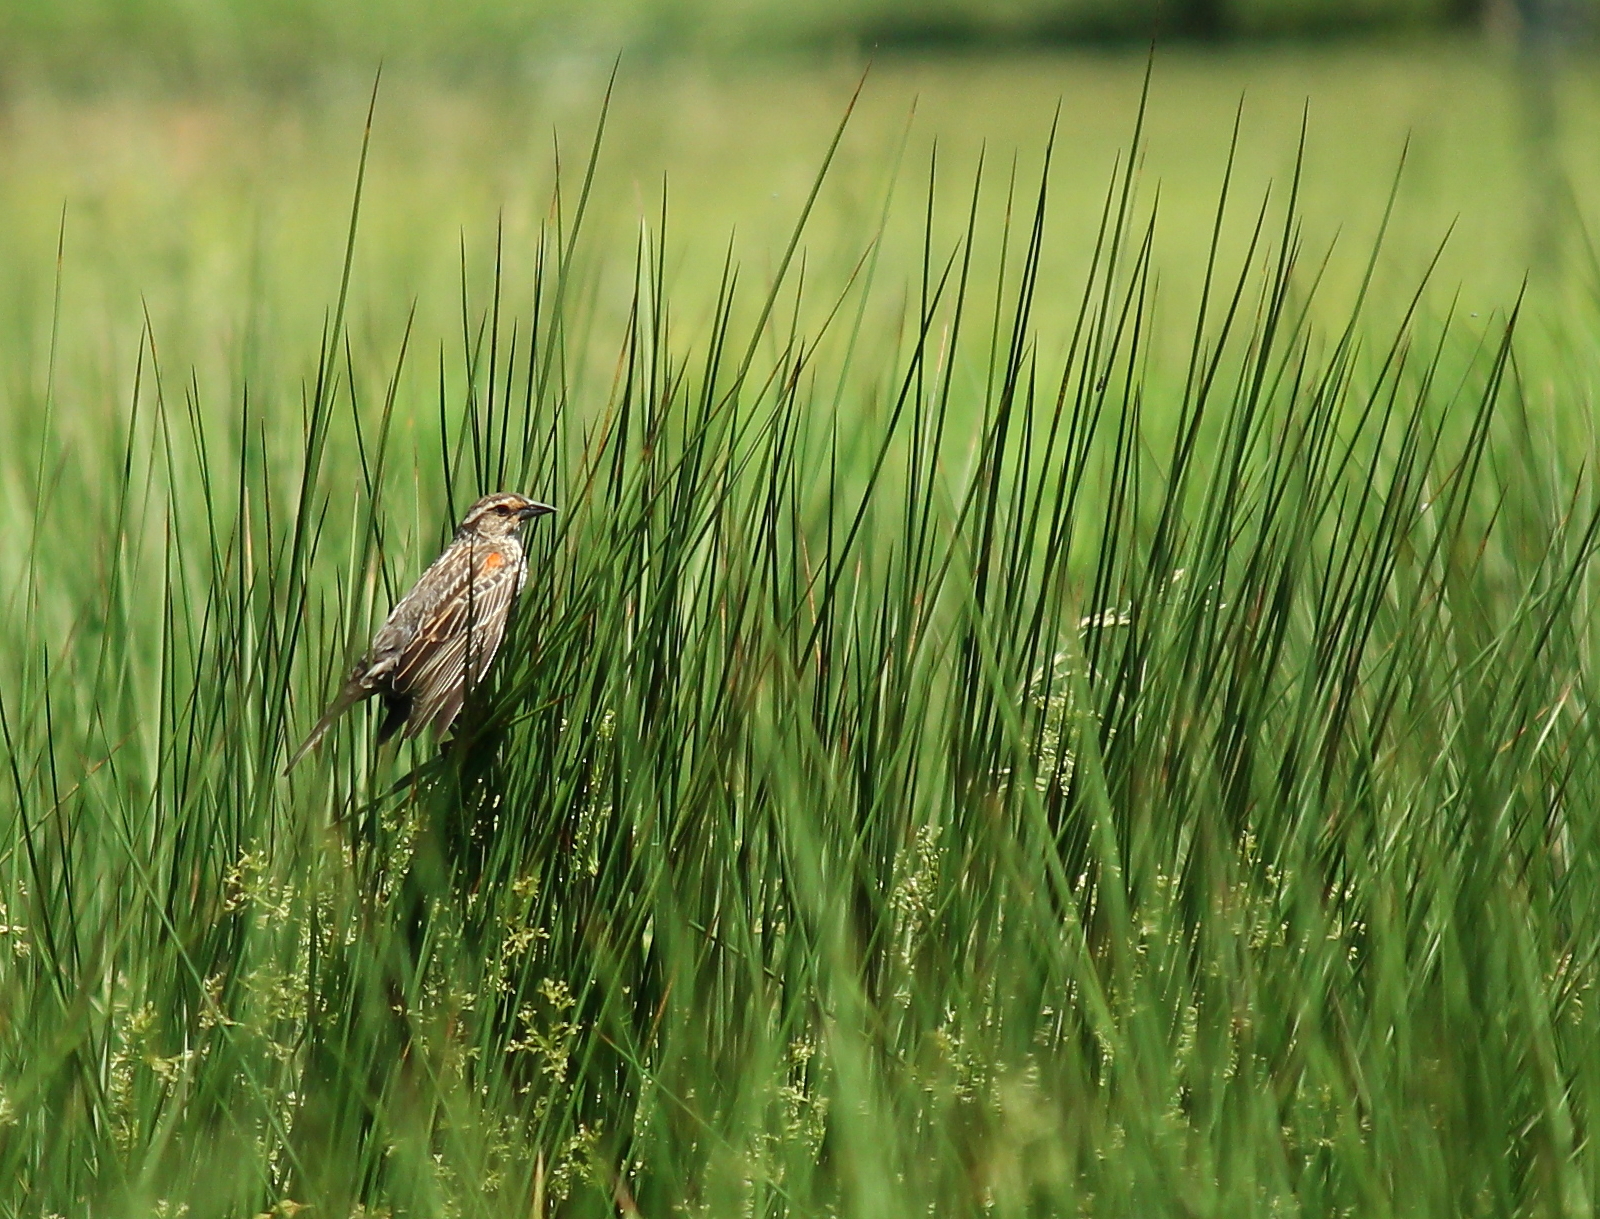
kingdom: Animalia
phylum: Chordata
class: Aves
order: Passeriformes
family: Icteridae
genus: Agelaius
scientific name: Agelaius phoeniceus
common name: Red-winged blackbird
